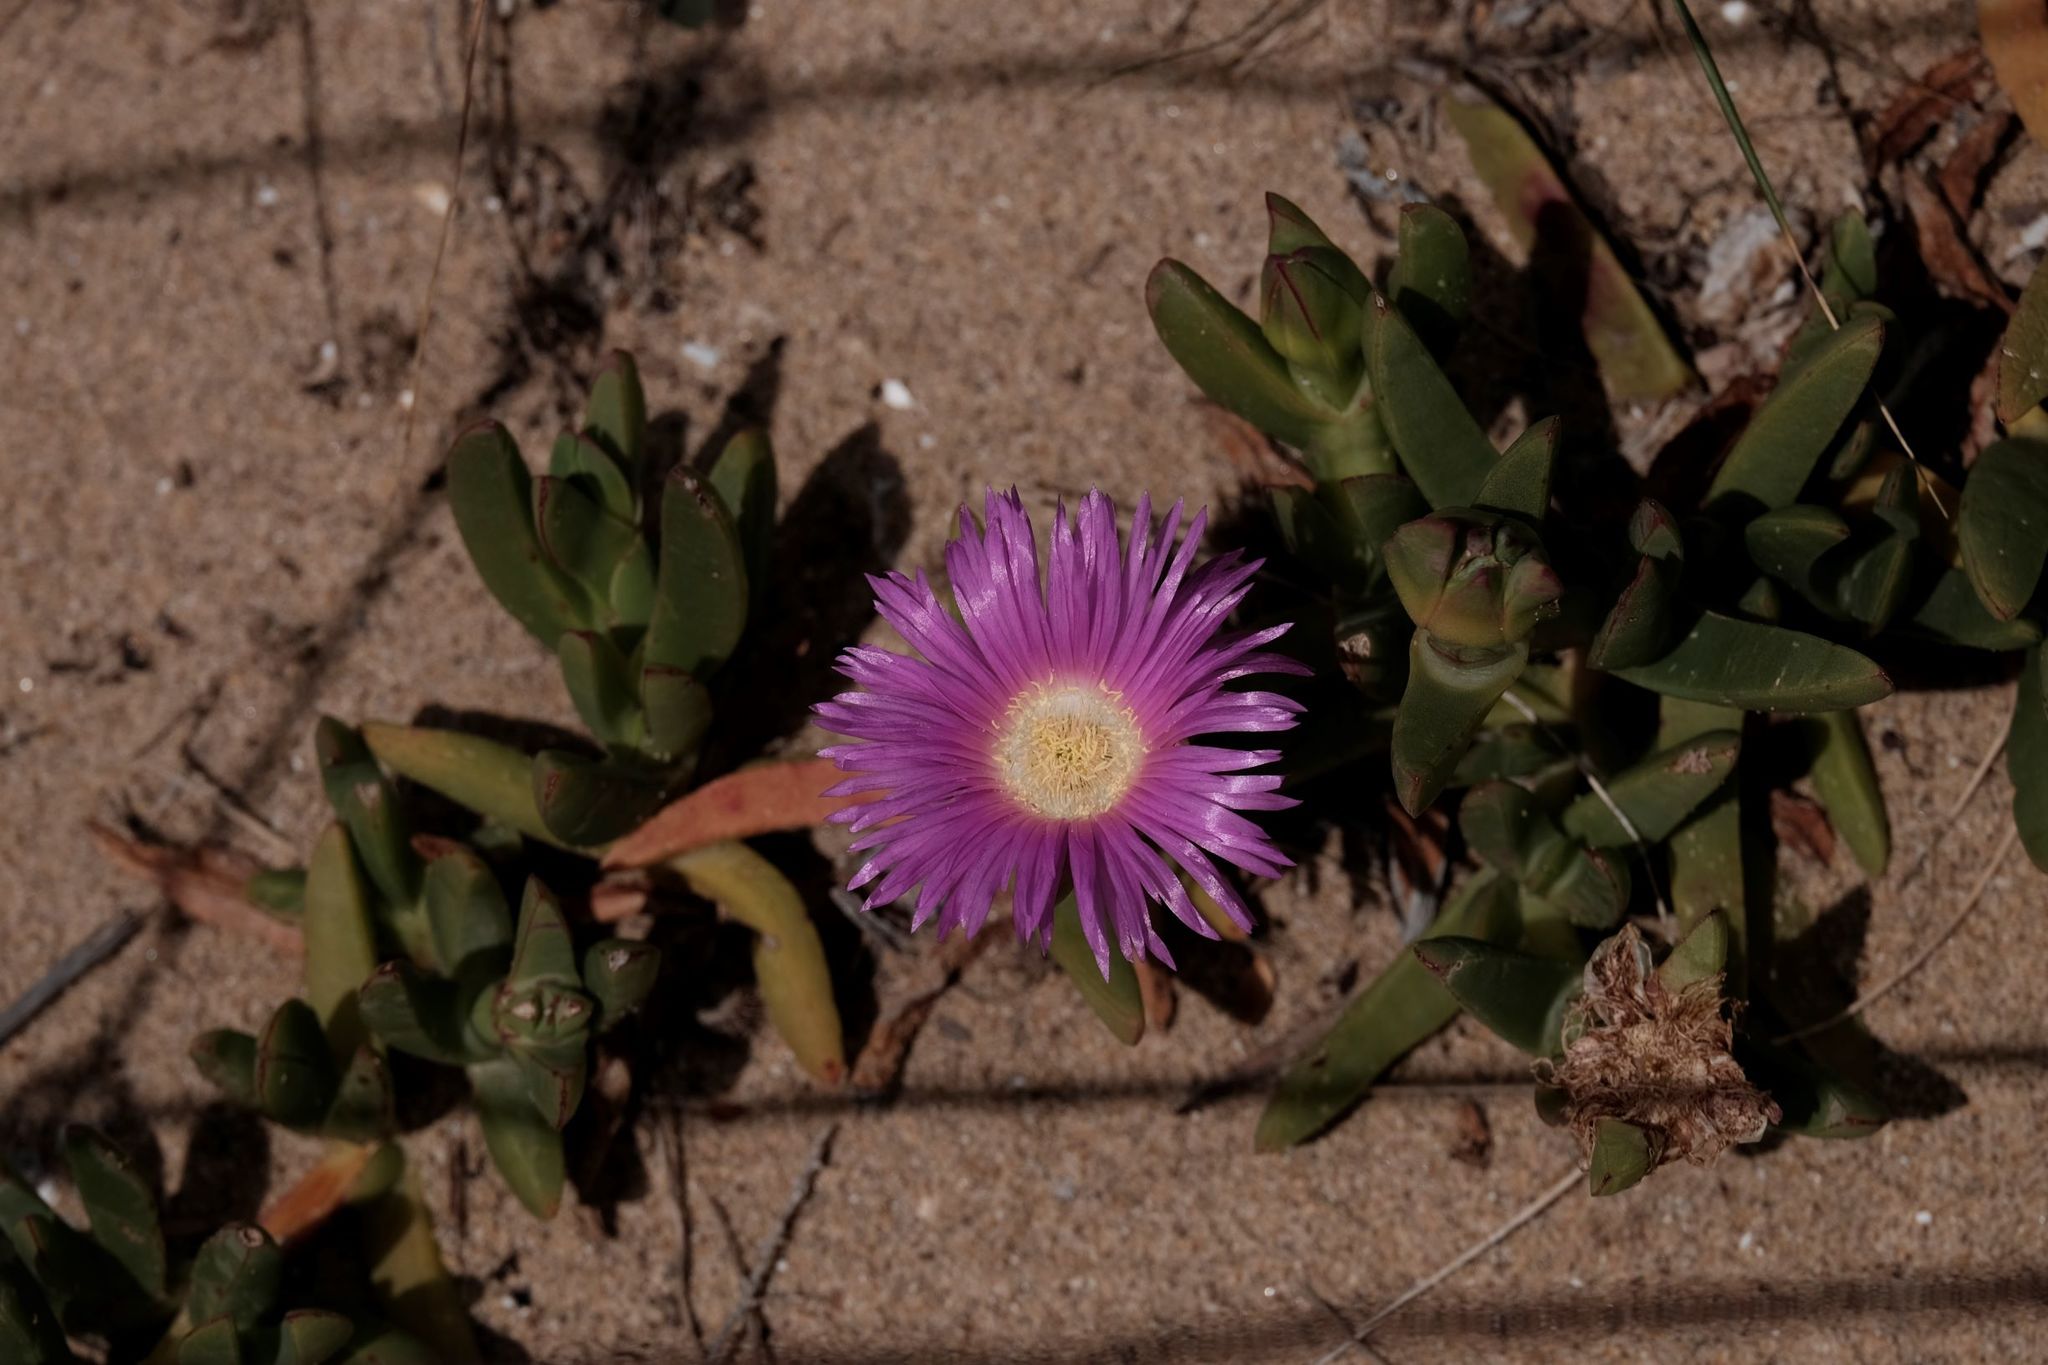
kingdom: Plantae
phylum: Tracheophyta
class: Magnoliopsida
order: Caryophyllales
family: Aizoaceae
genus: Carpobrotus
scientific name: Carpobrotus rossii
